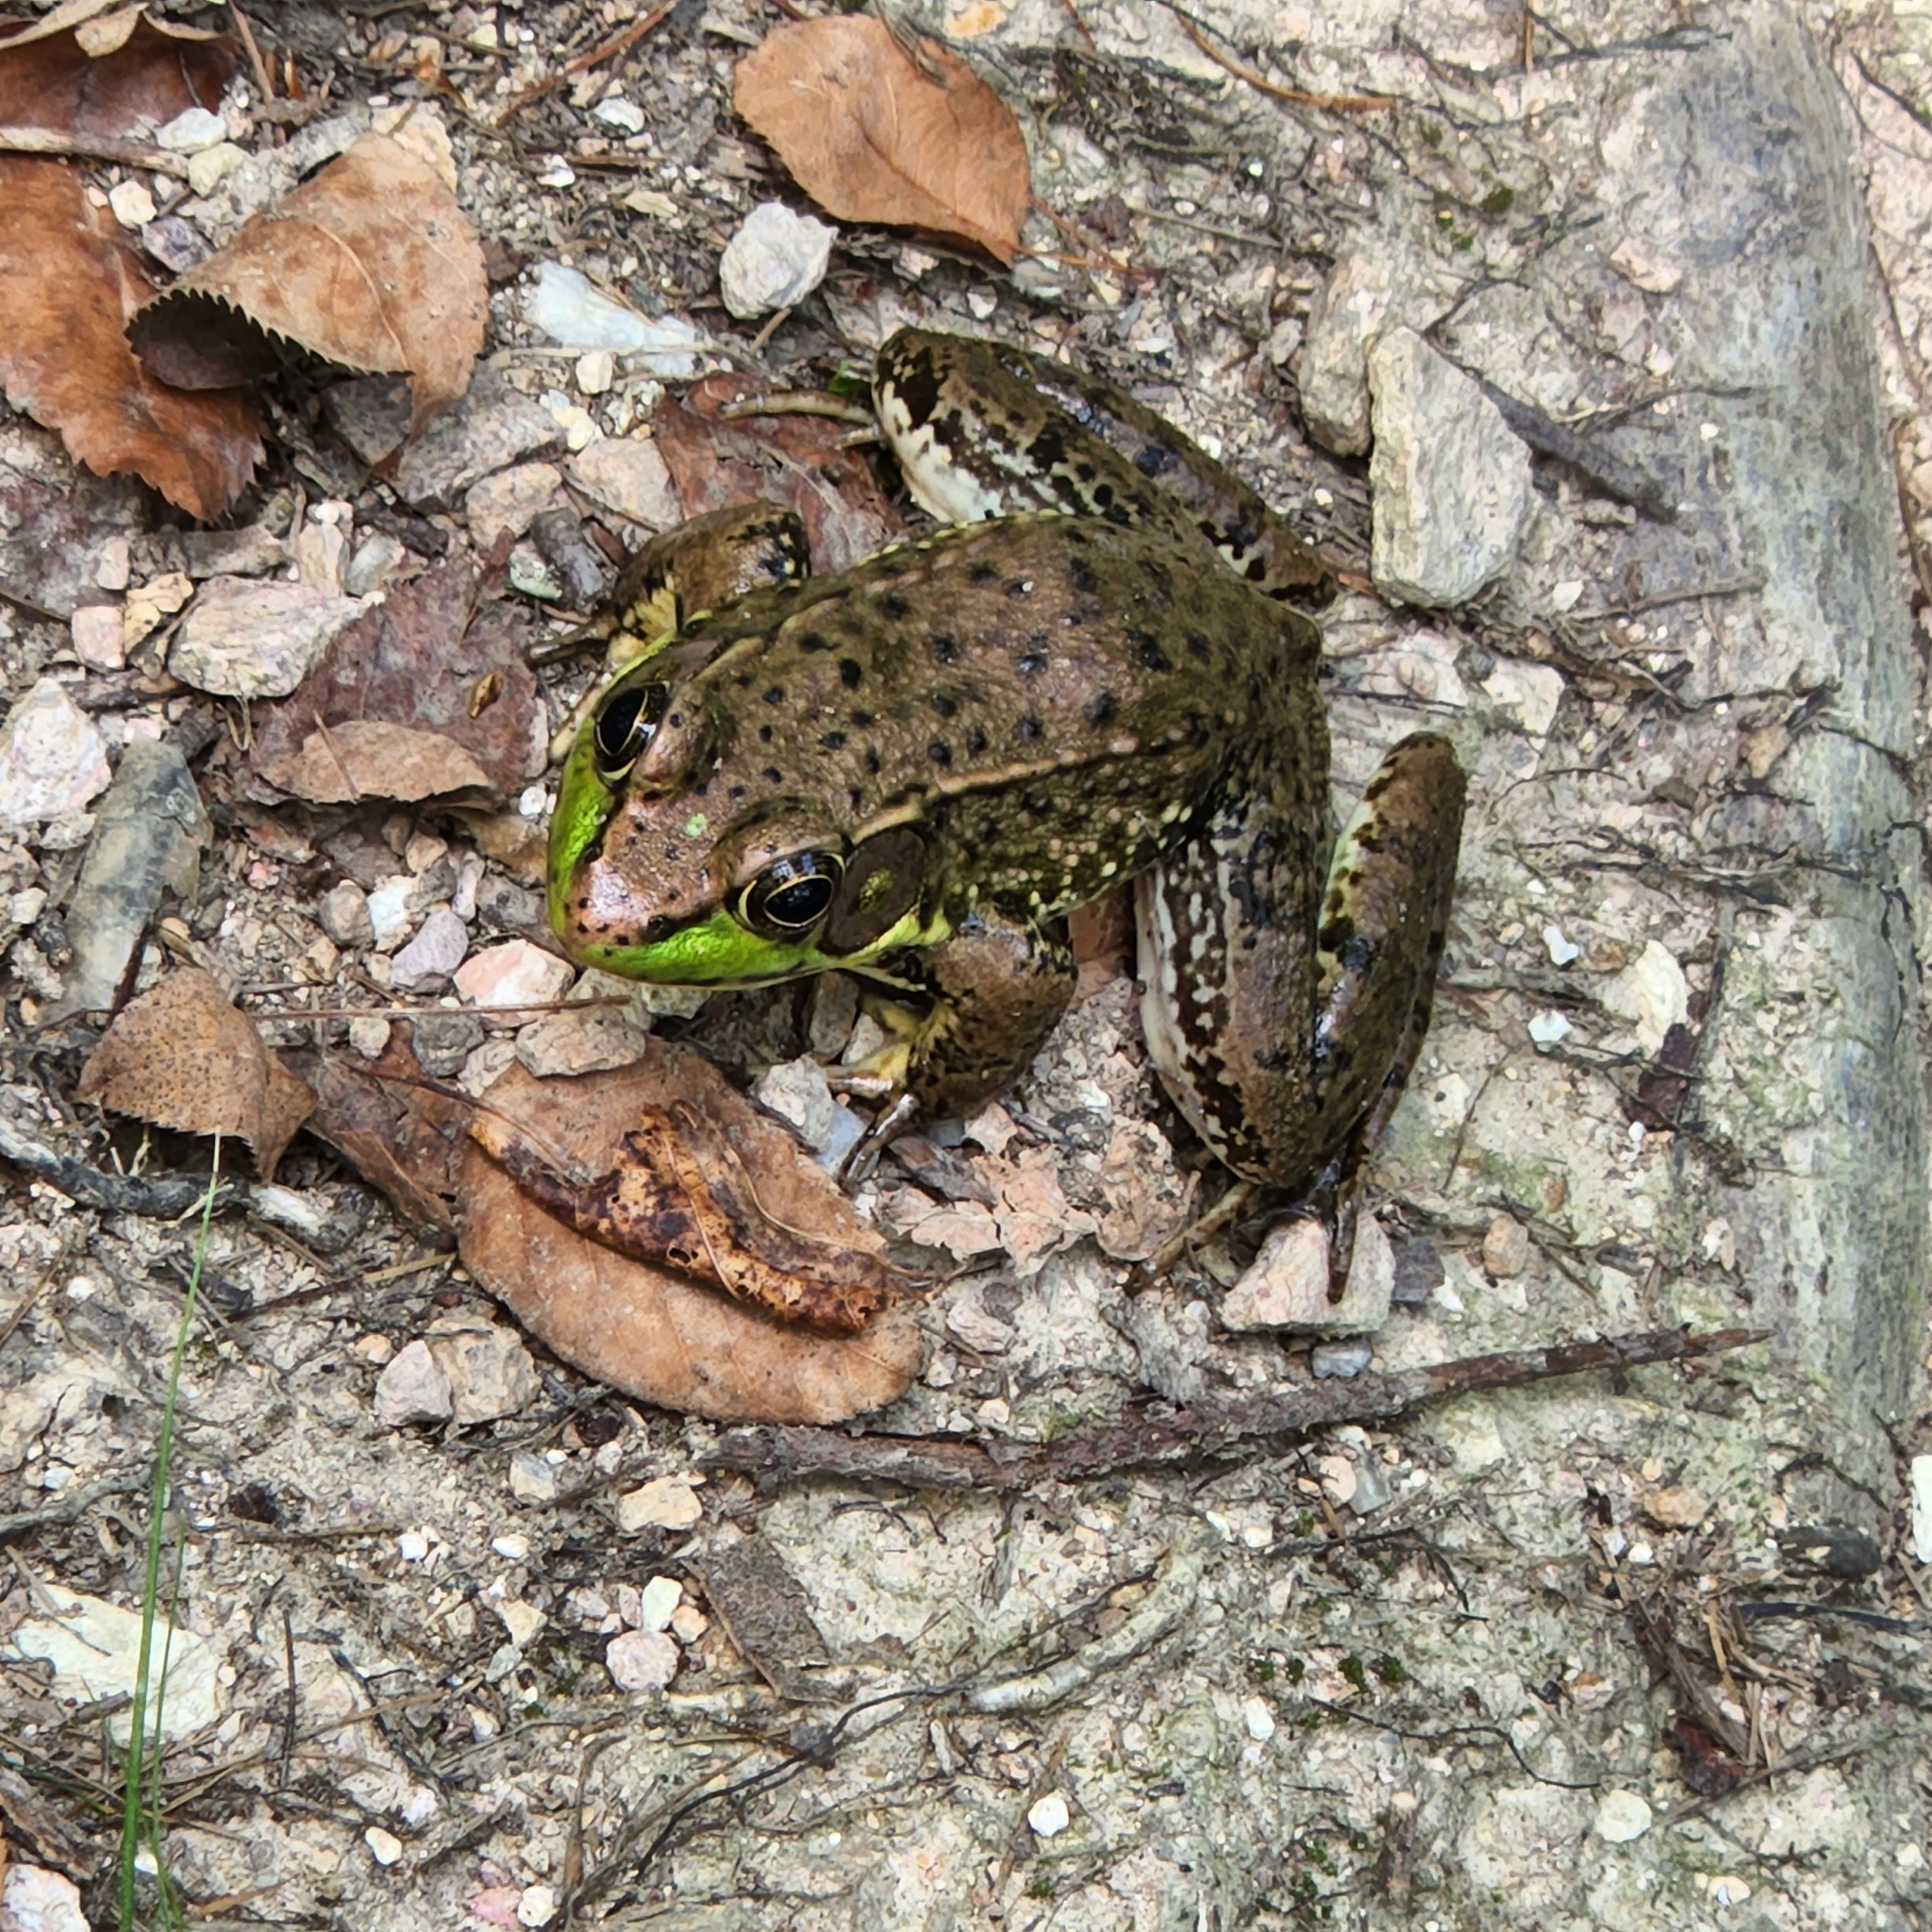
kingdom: Animalia
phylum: Chordata
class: Amphibia
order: Anura
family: Ranidae
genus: Lithobates
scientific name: Lithobates clamitans
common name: Green frog
